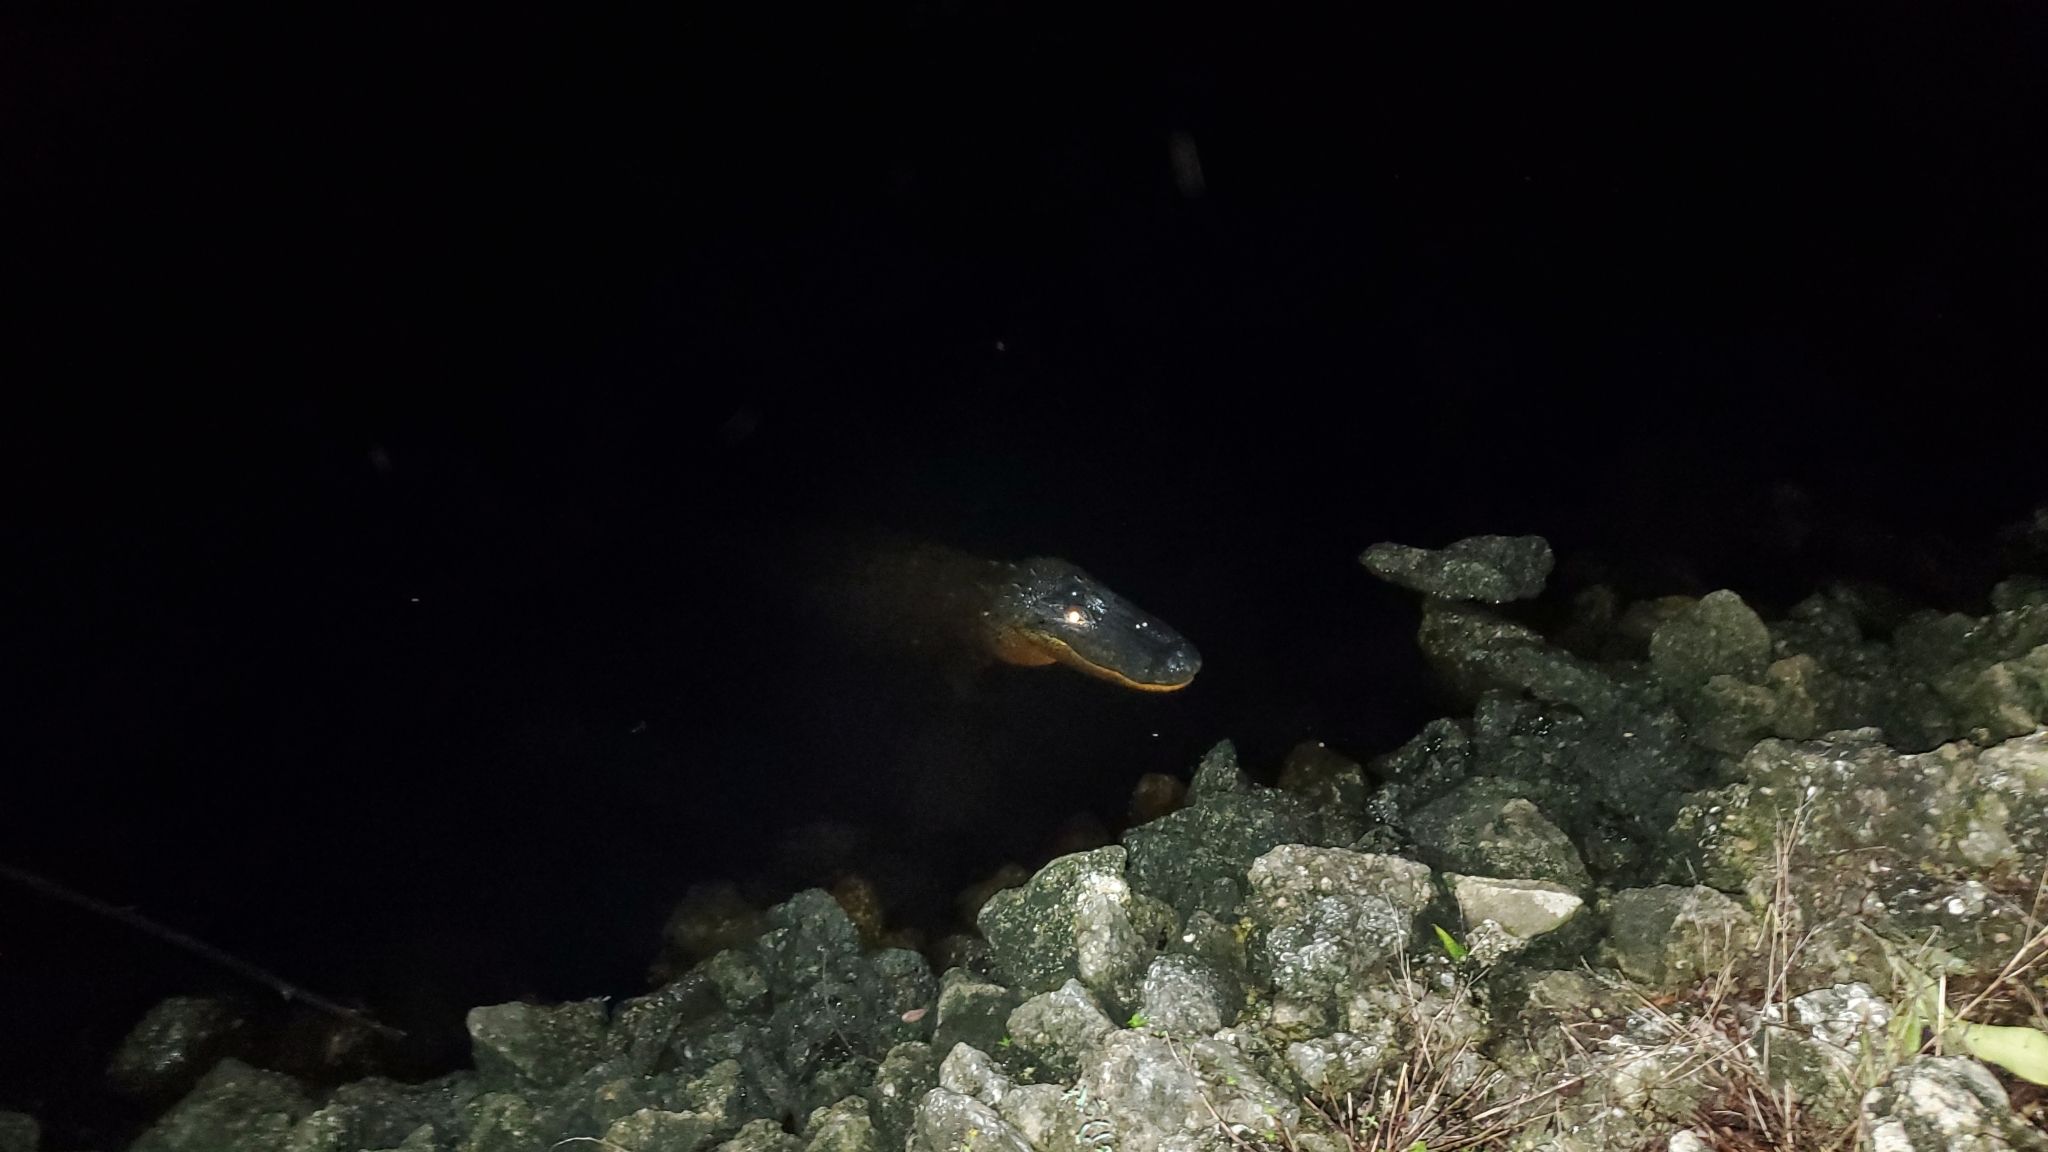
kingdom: Animalia
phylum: Chordata
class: Crocodylia
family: Alligatoridae
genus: Alligator
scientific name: Alligator mississippiensis
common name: American alligator
